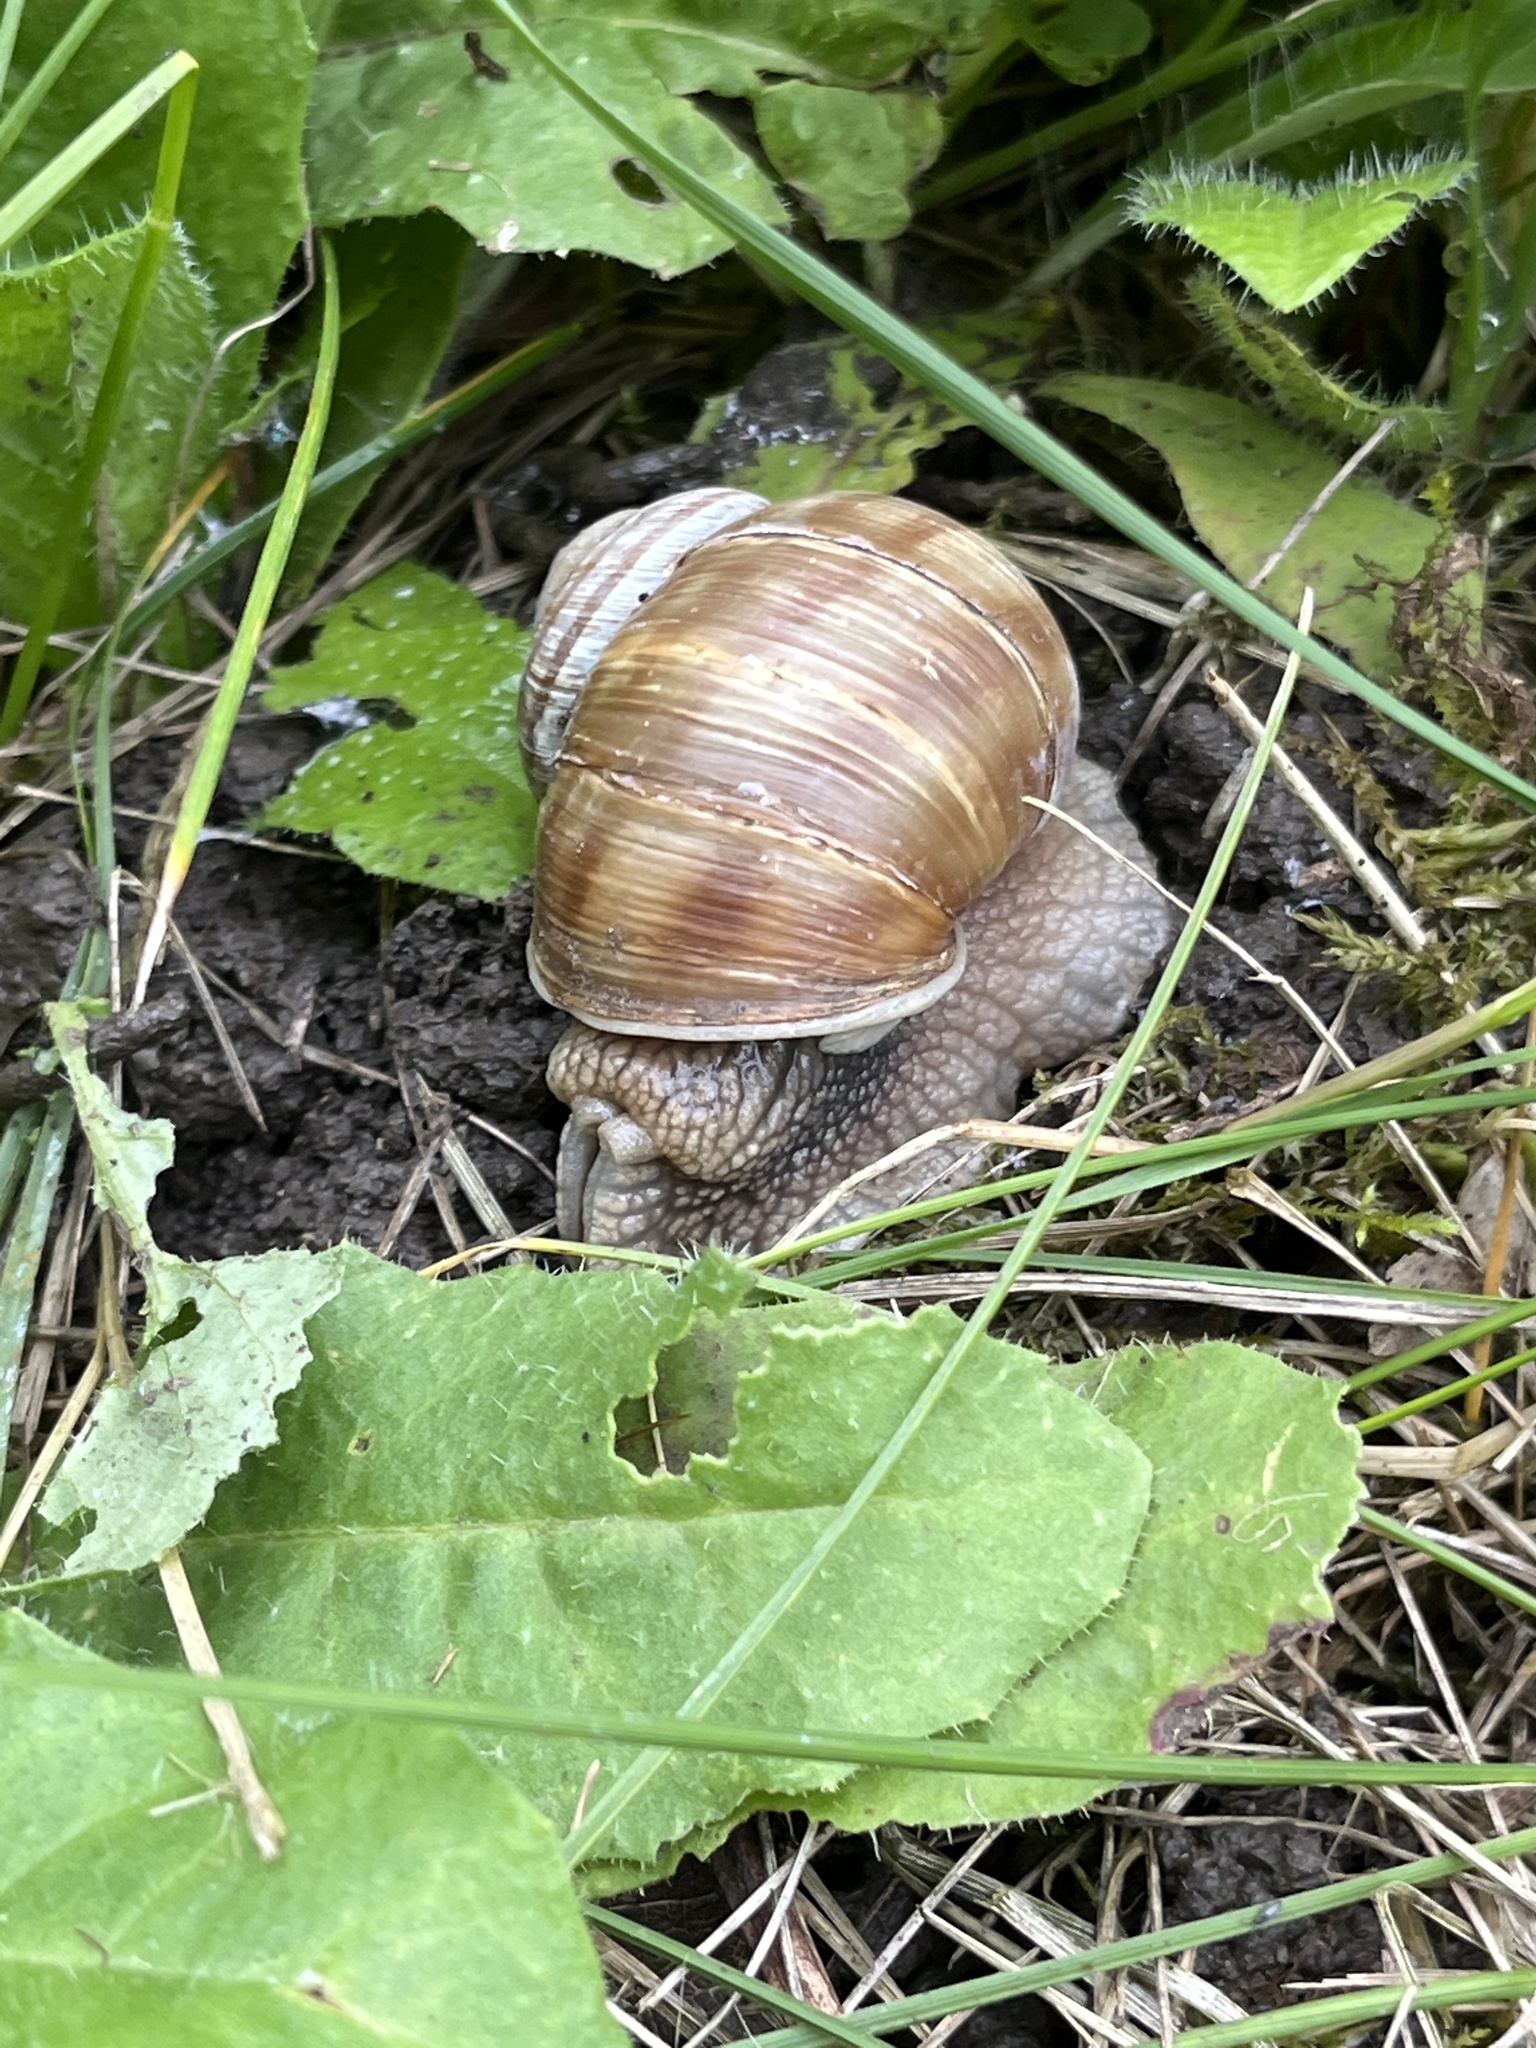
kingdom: Animalia
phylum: Mollusca
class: Gastropoda
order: Stylommatophora
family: Helicidae
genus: Helix
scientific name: Helix pomatia
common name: Roman snail
